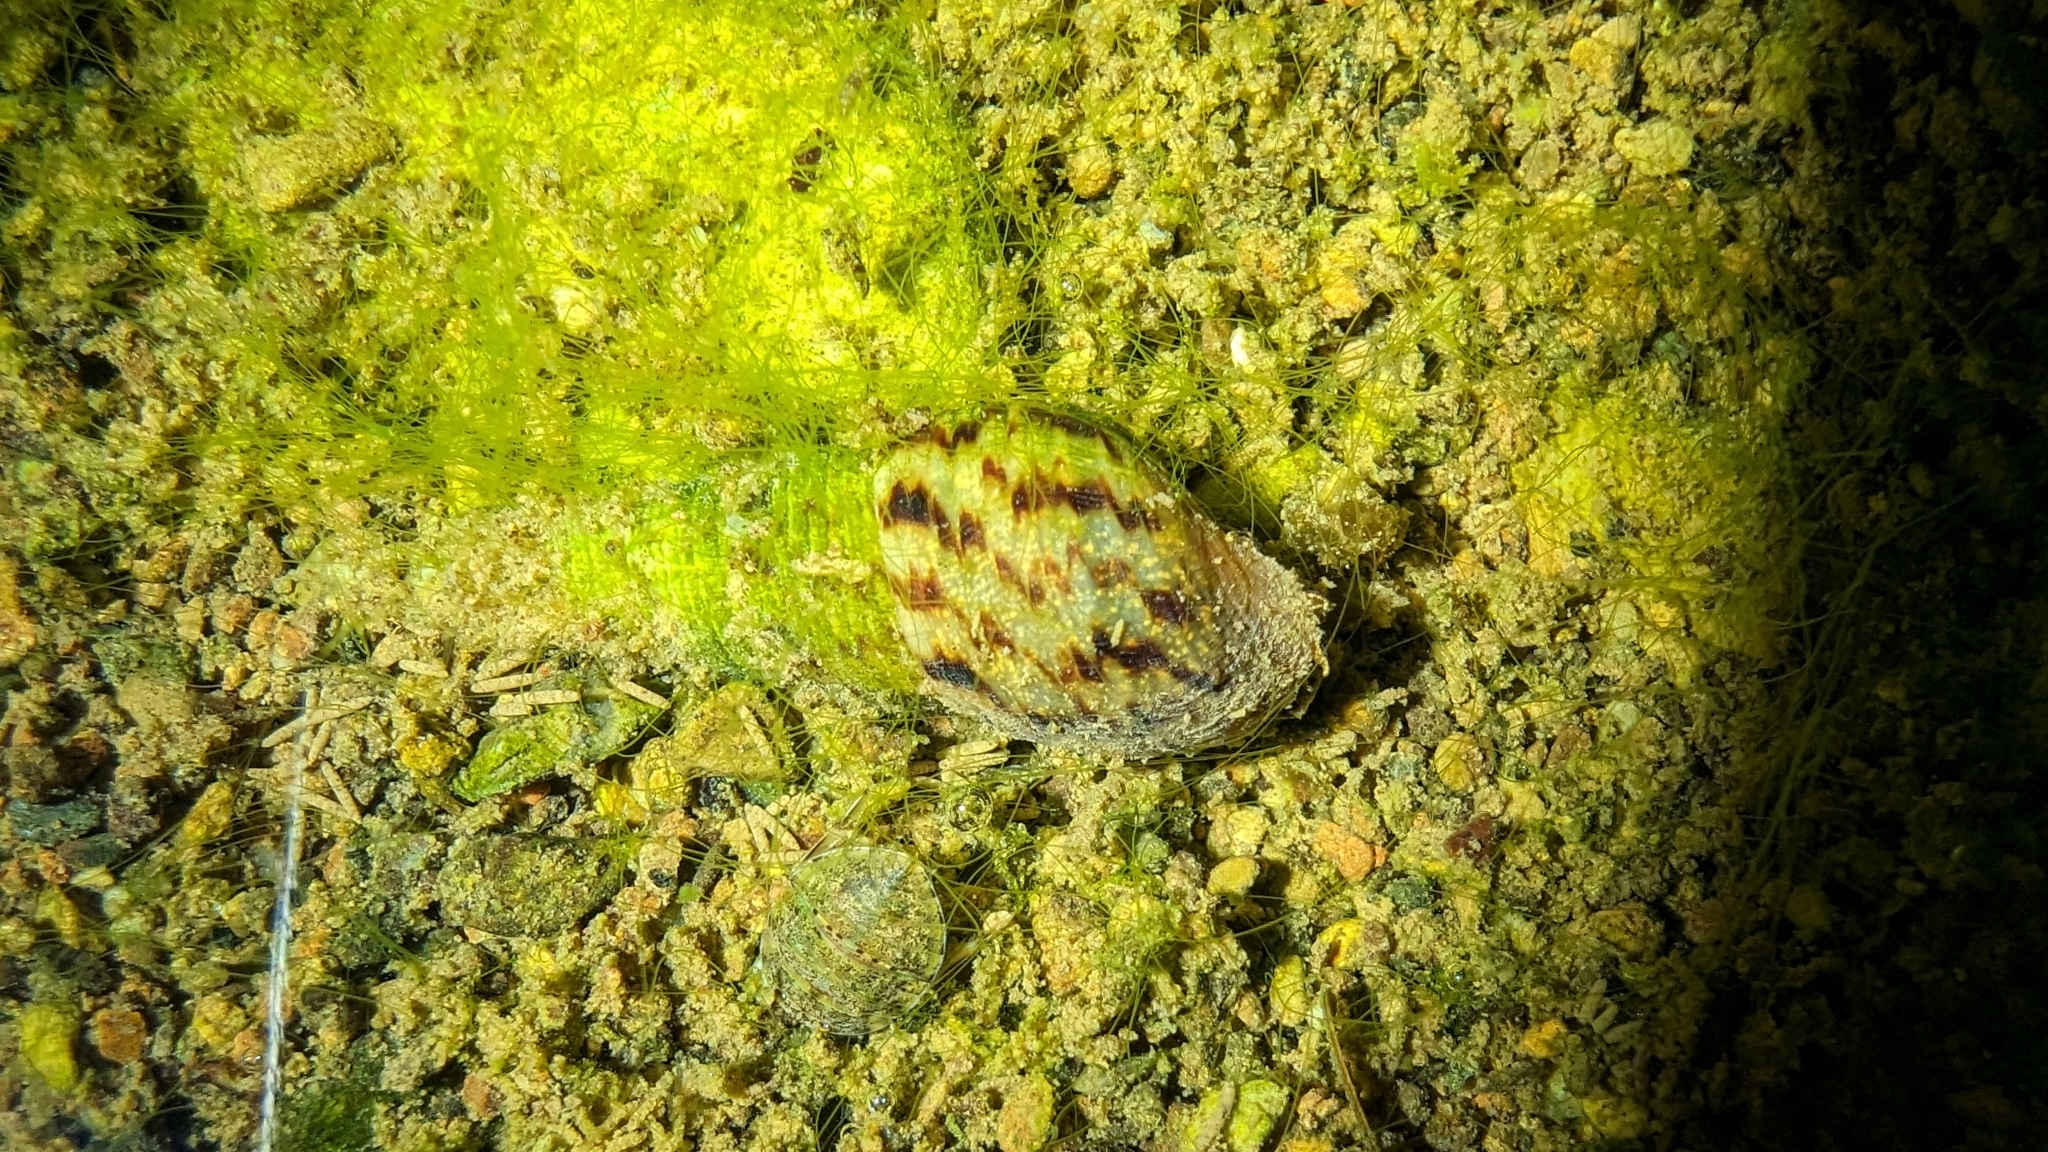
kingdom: Animalia
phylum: Mollusca
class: Gastropoda
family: Thiaridae
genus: Melanoides
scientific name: Melanoides tuberculata
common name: Red-rim melania
